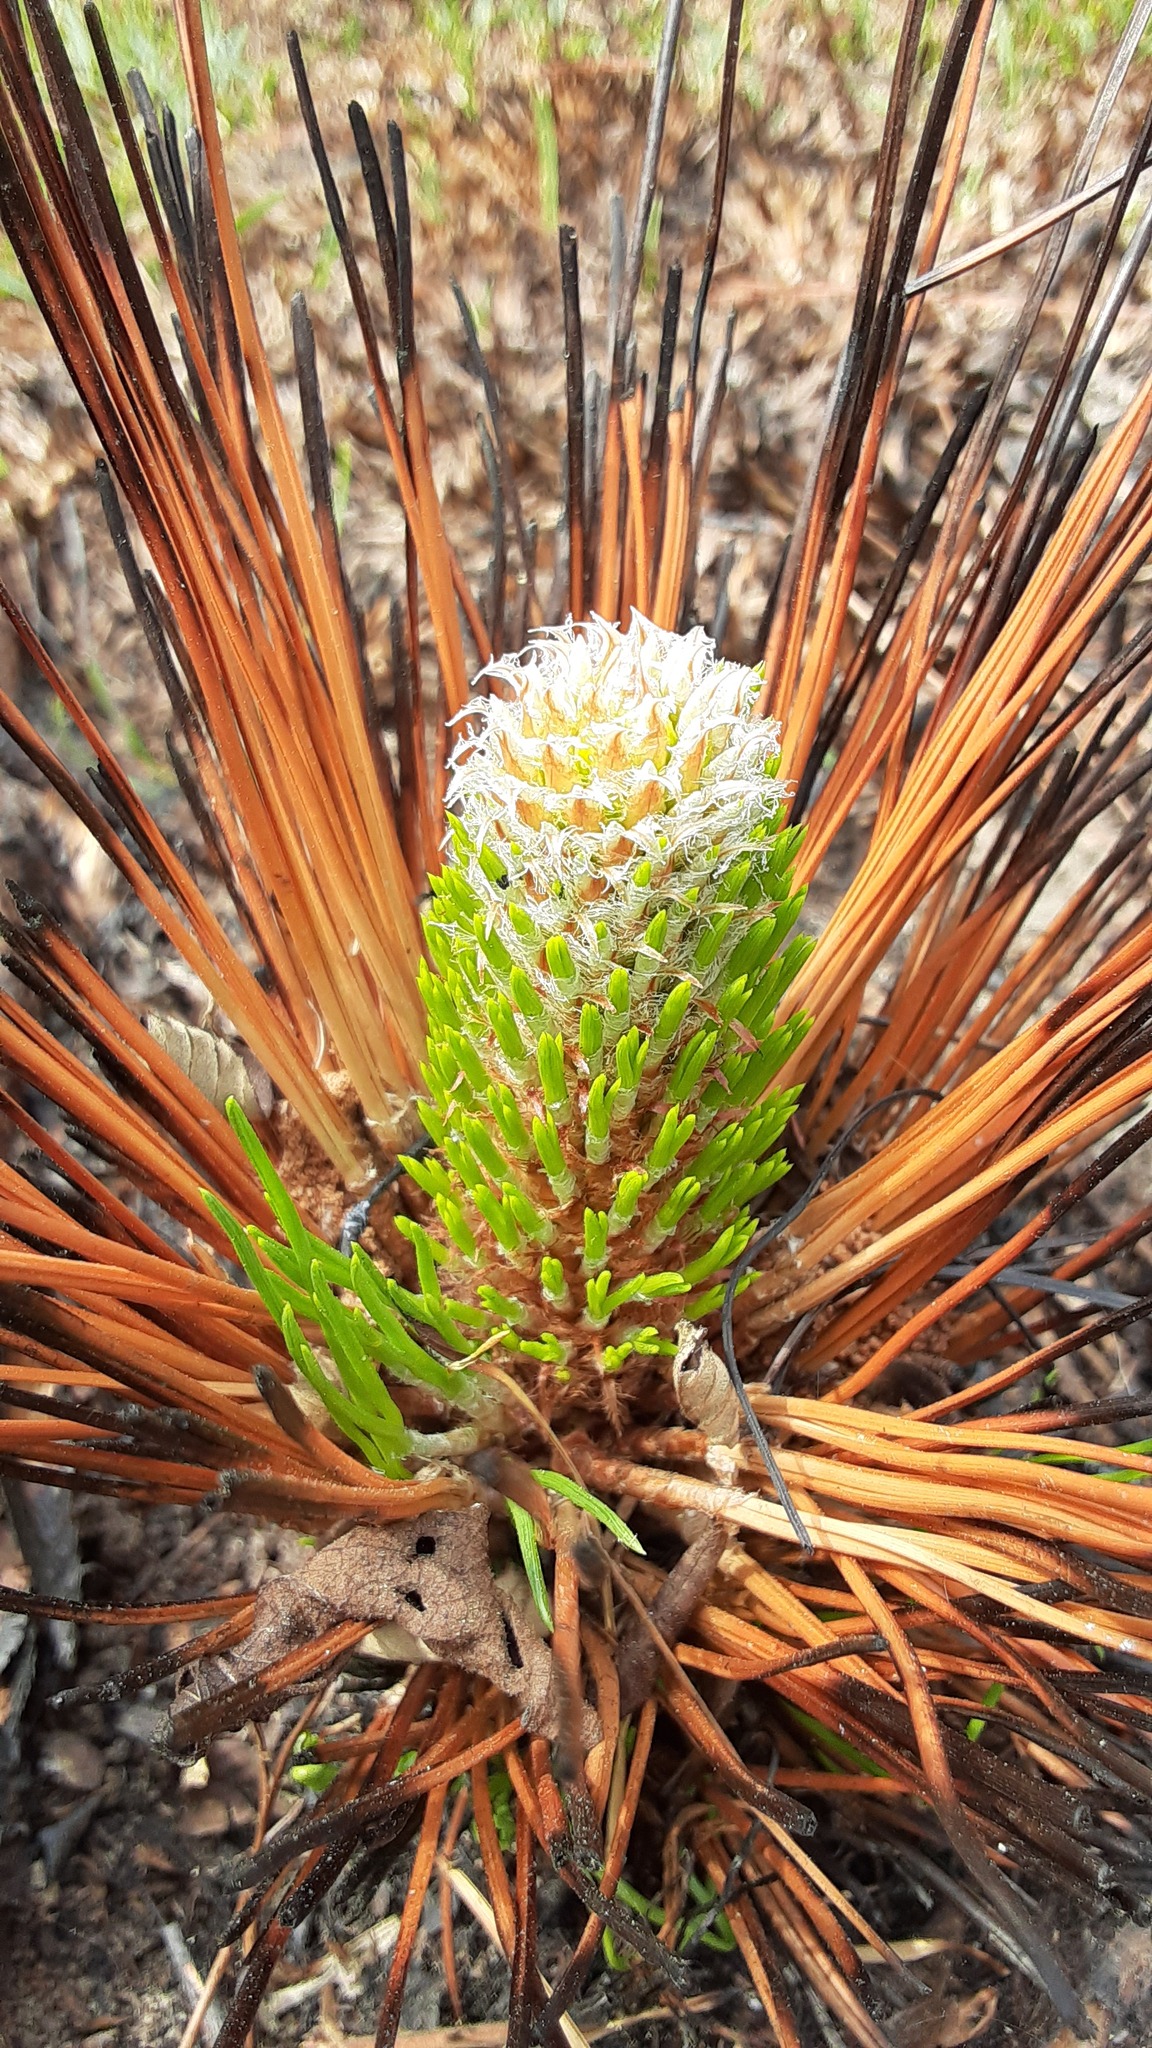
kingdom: Plantae
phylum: Tracheophyta
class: Pinopsida
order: Pinales
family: Pinaceae
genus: Pinus
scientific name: Pinus palustris
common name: Longleaf pine
